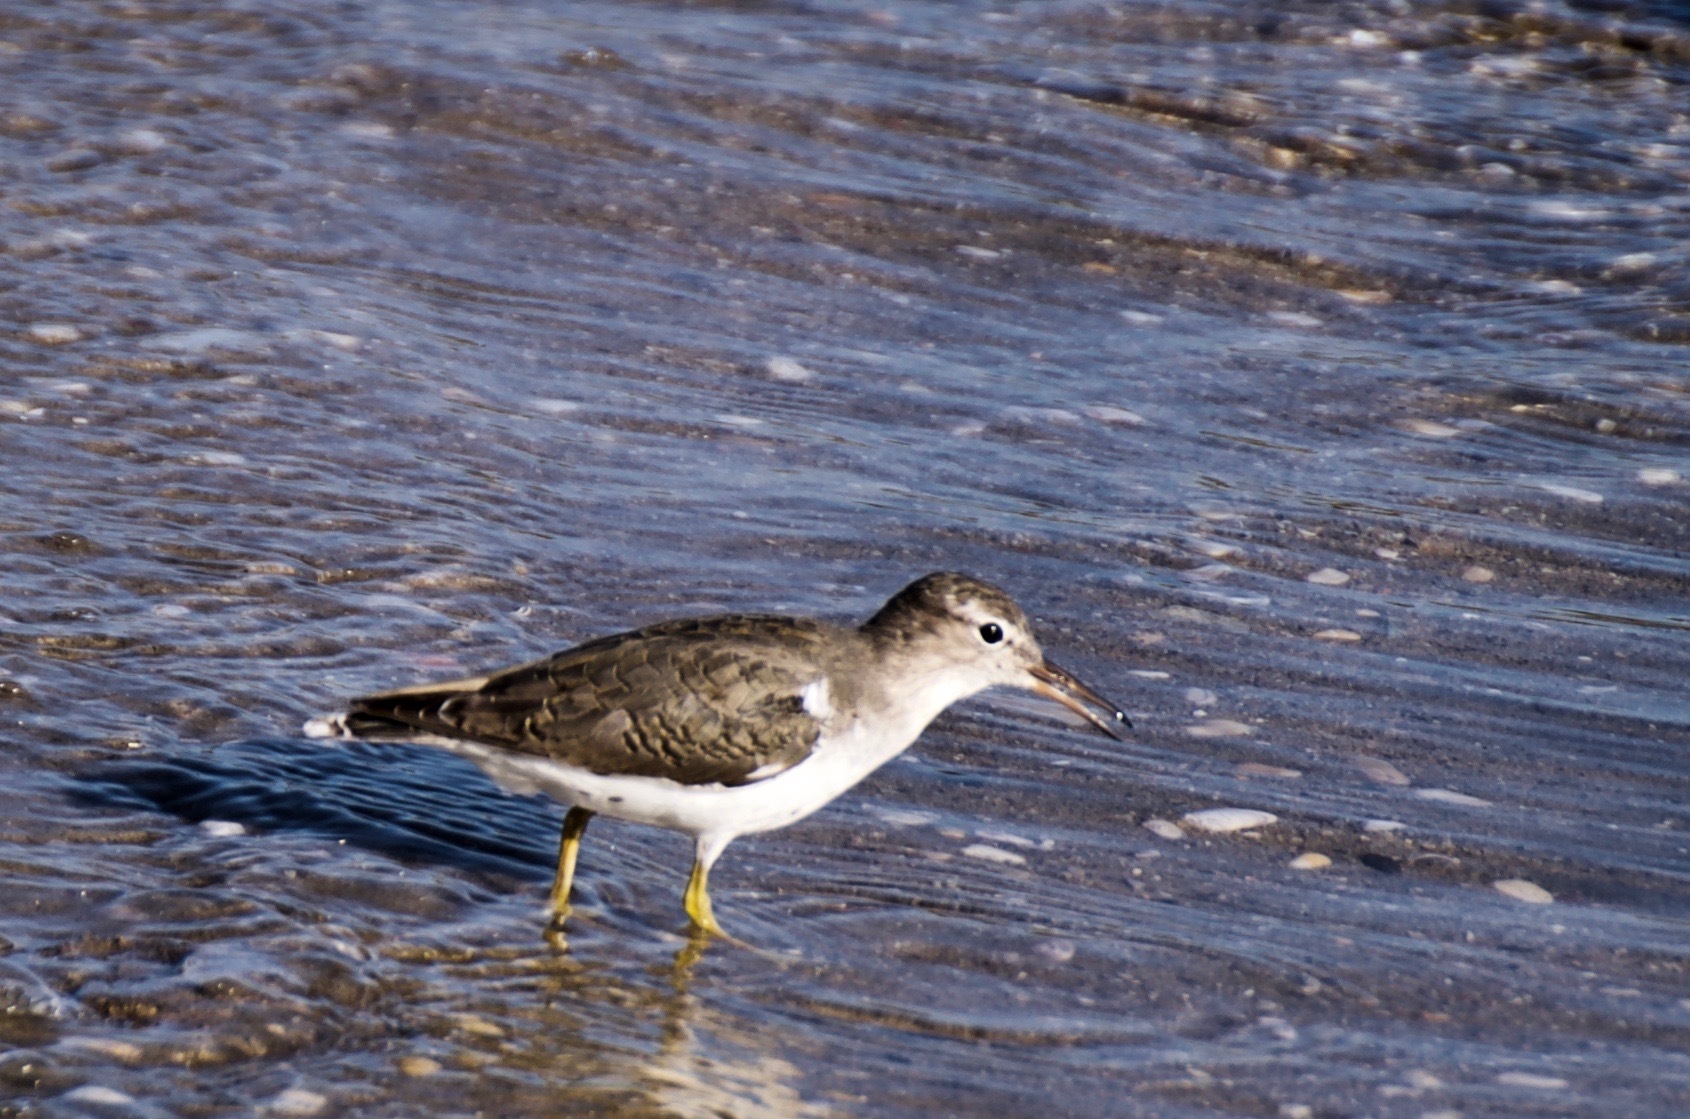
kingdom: Animalia
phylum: Chordata
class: Aves
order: Charadriiformes
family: Scolopacidae
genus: Actitis
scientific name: Actitis macularius
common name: Spotted sandpiper
